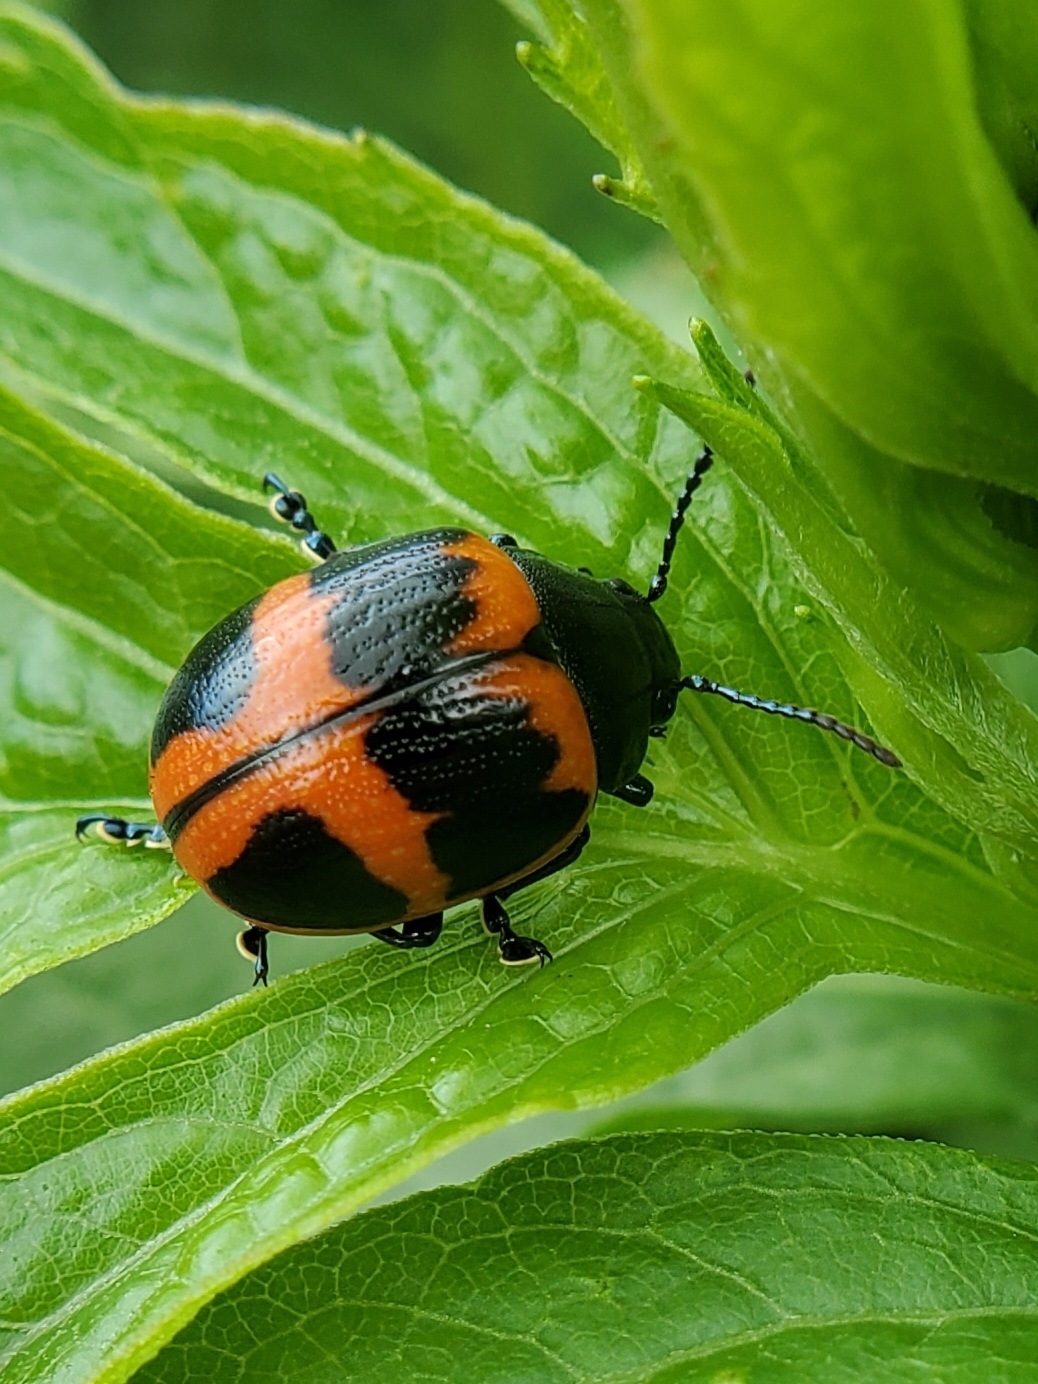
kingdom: Animalia
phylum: Arthropoda
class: Insecta
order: Coleoptera
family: Chrysomelidae
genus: Labidomera
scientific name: Labidomera clivicollis
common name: Swamp milkweed leaf beetle
